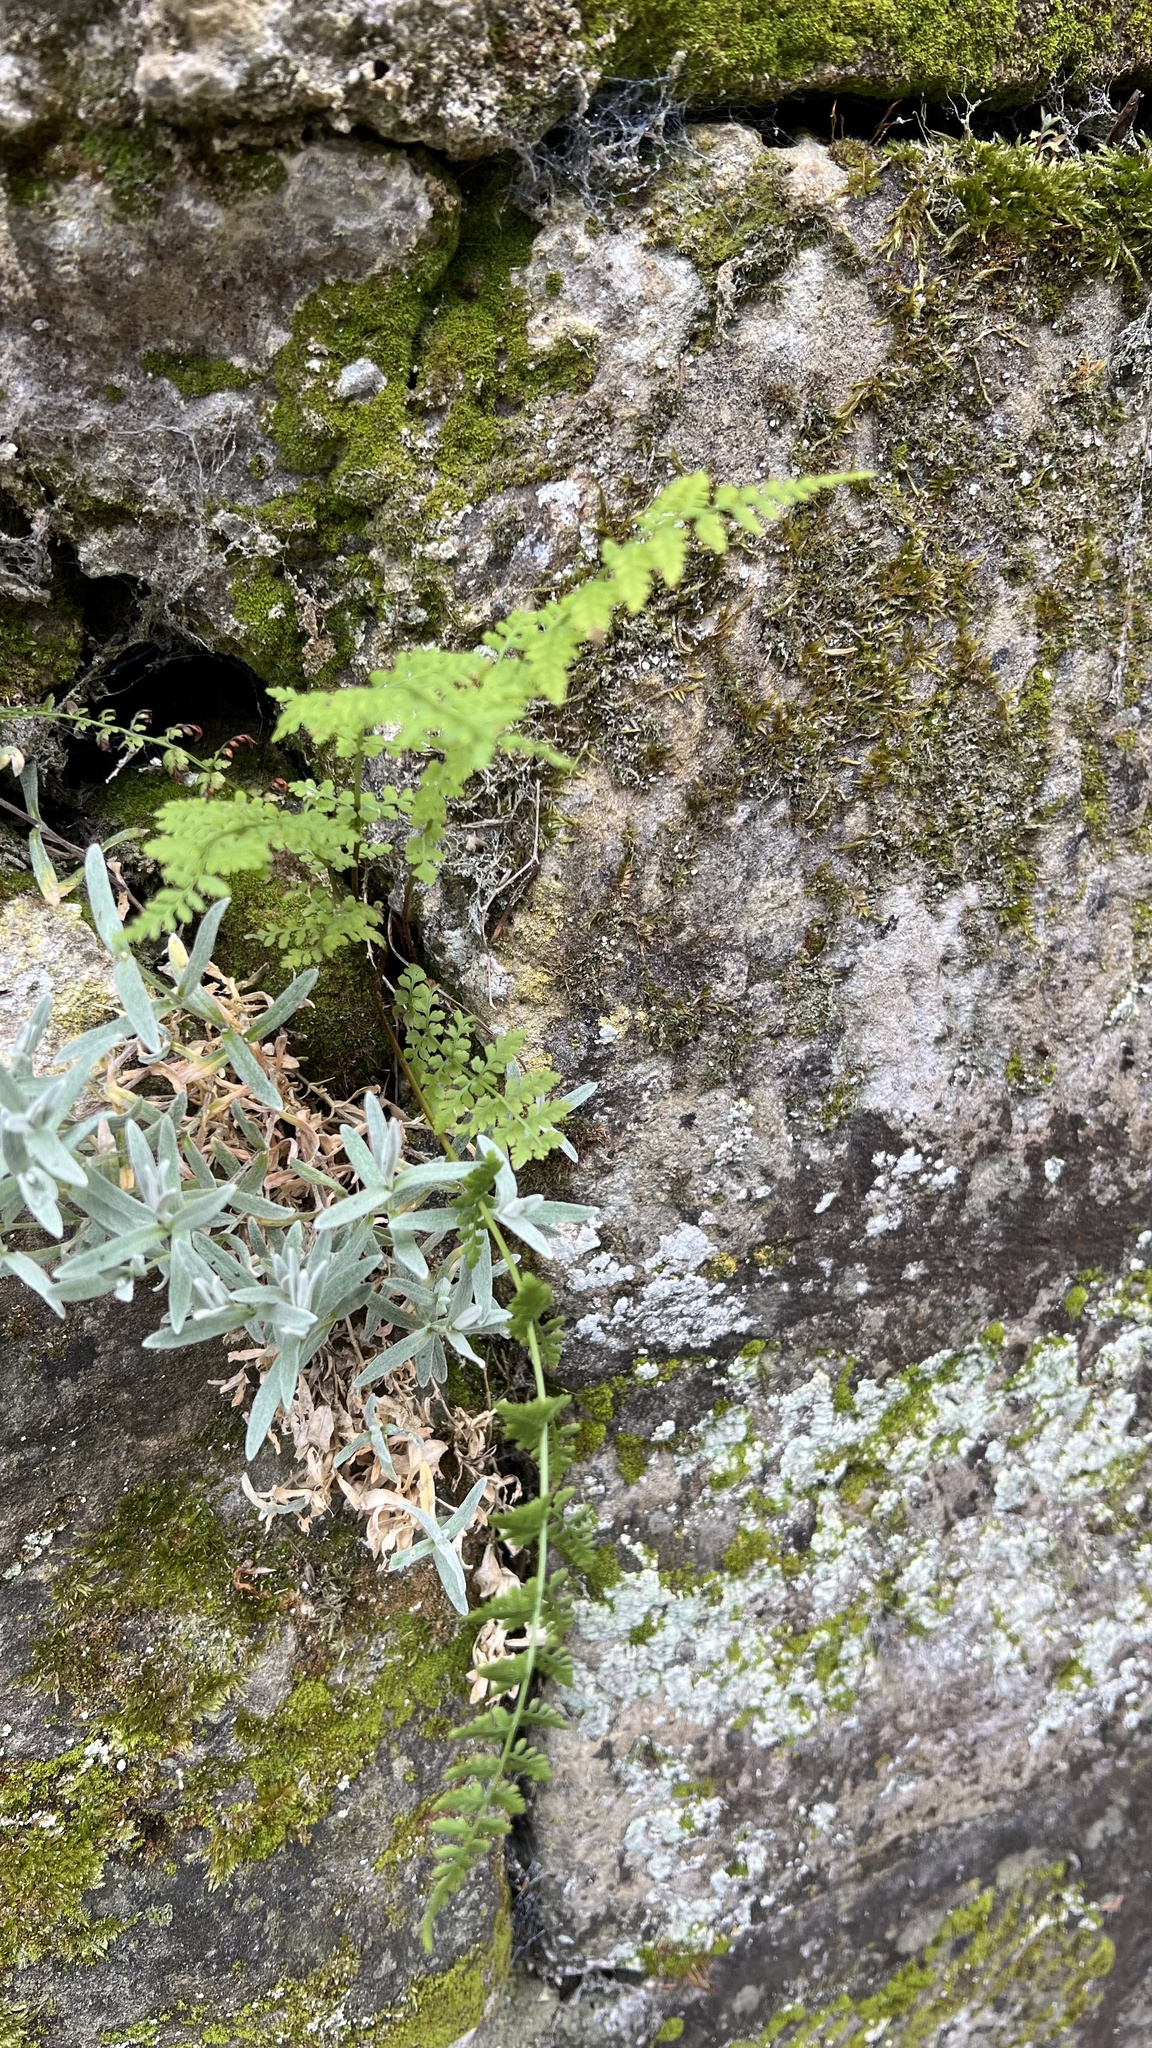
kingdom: Plantae
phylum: Tracheophyta
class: Polypodiopsida
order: Polypodiales
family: Cystopteridaceae
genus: Cystopteris
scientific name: Cystopteris fragilis
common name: Brittle bladder fern
